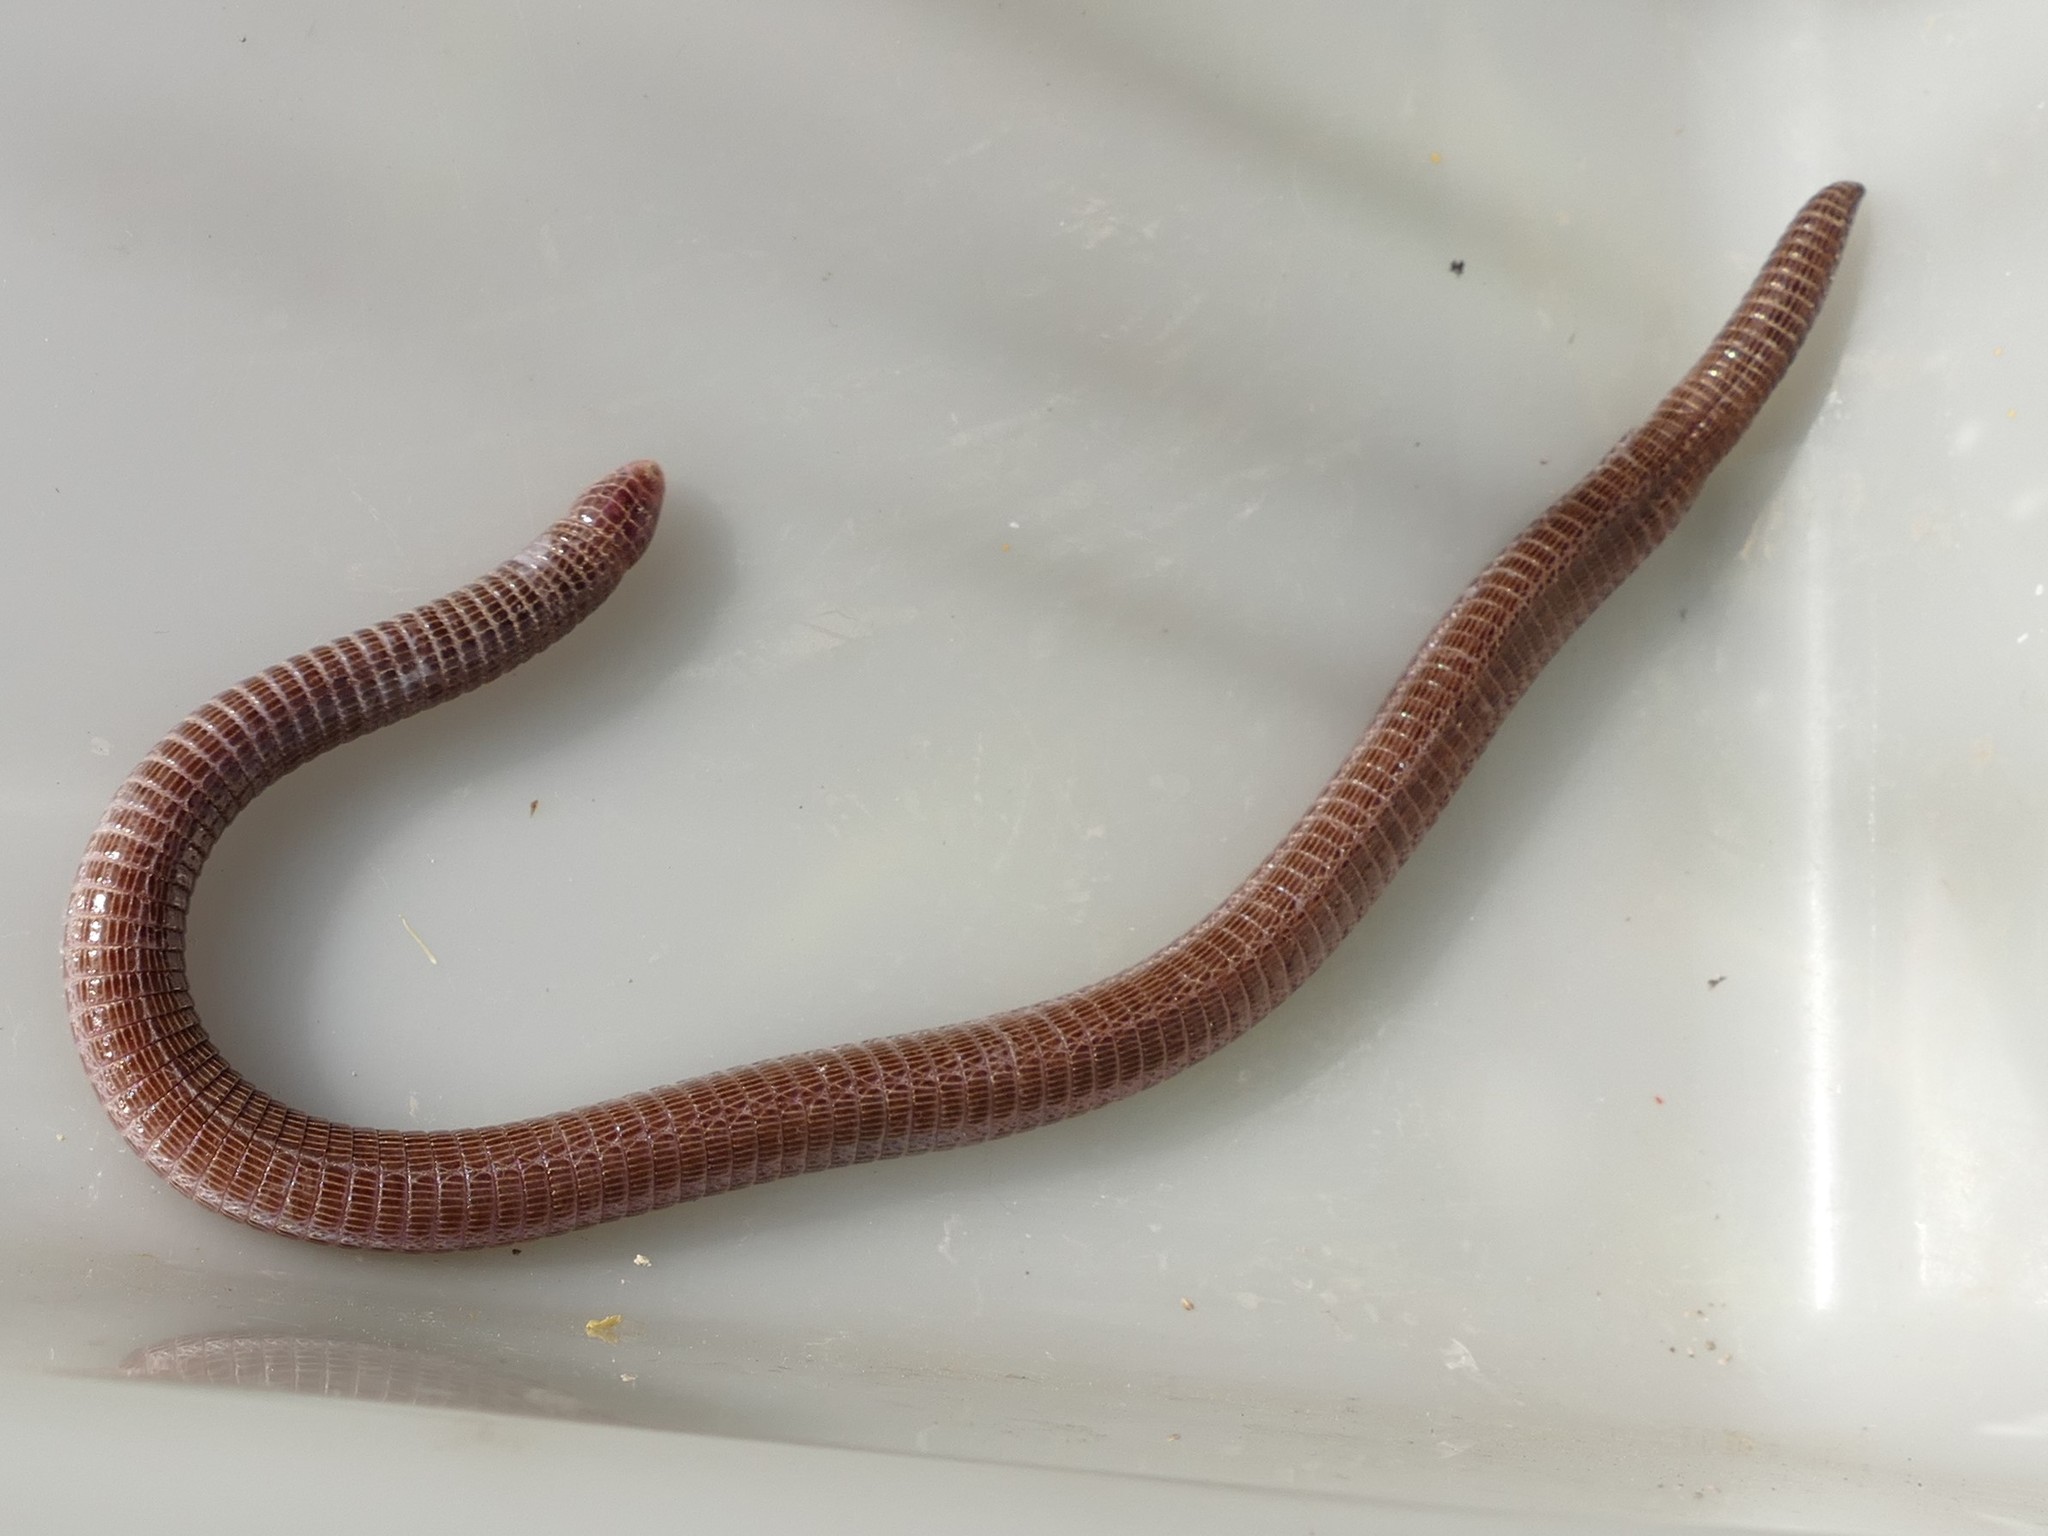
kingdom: Animalia
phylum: Chordata
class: Squamata
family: Blanidae
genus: Blanus
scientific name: Blanus vandellii
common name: Vandelli's worm lizard
